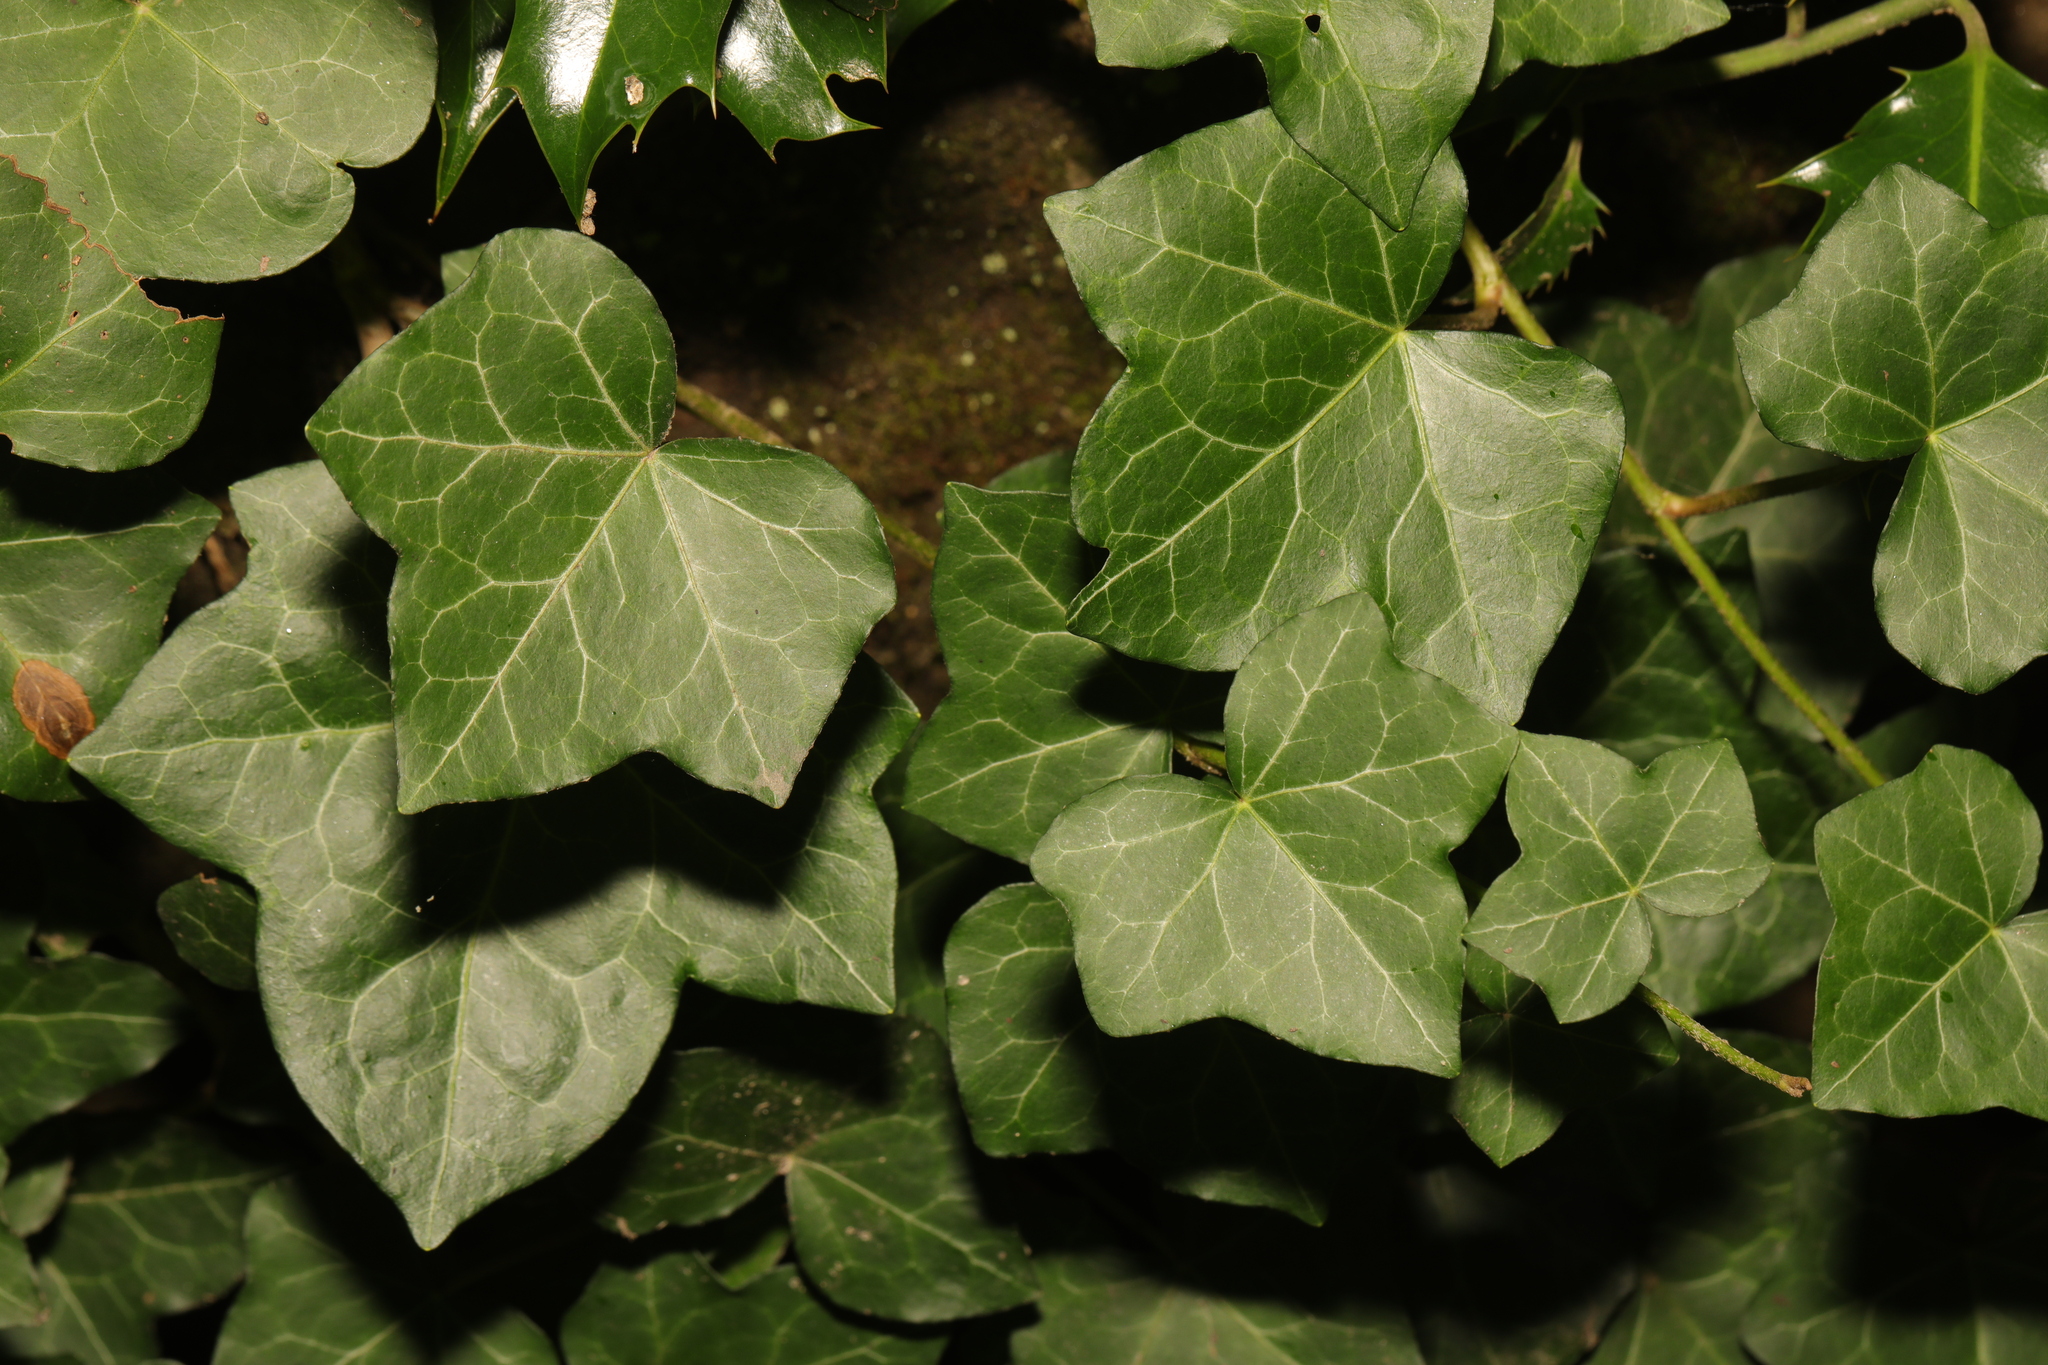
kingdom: Plantae
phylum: Tracheophyta
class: Magnoliopsida
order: Apiales
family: Araliaceae
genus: Hedera
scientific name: Hedera helix
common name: Ivy
